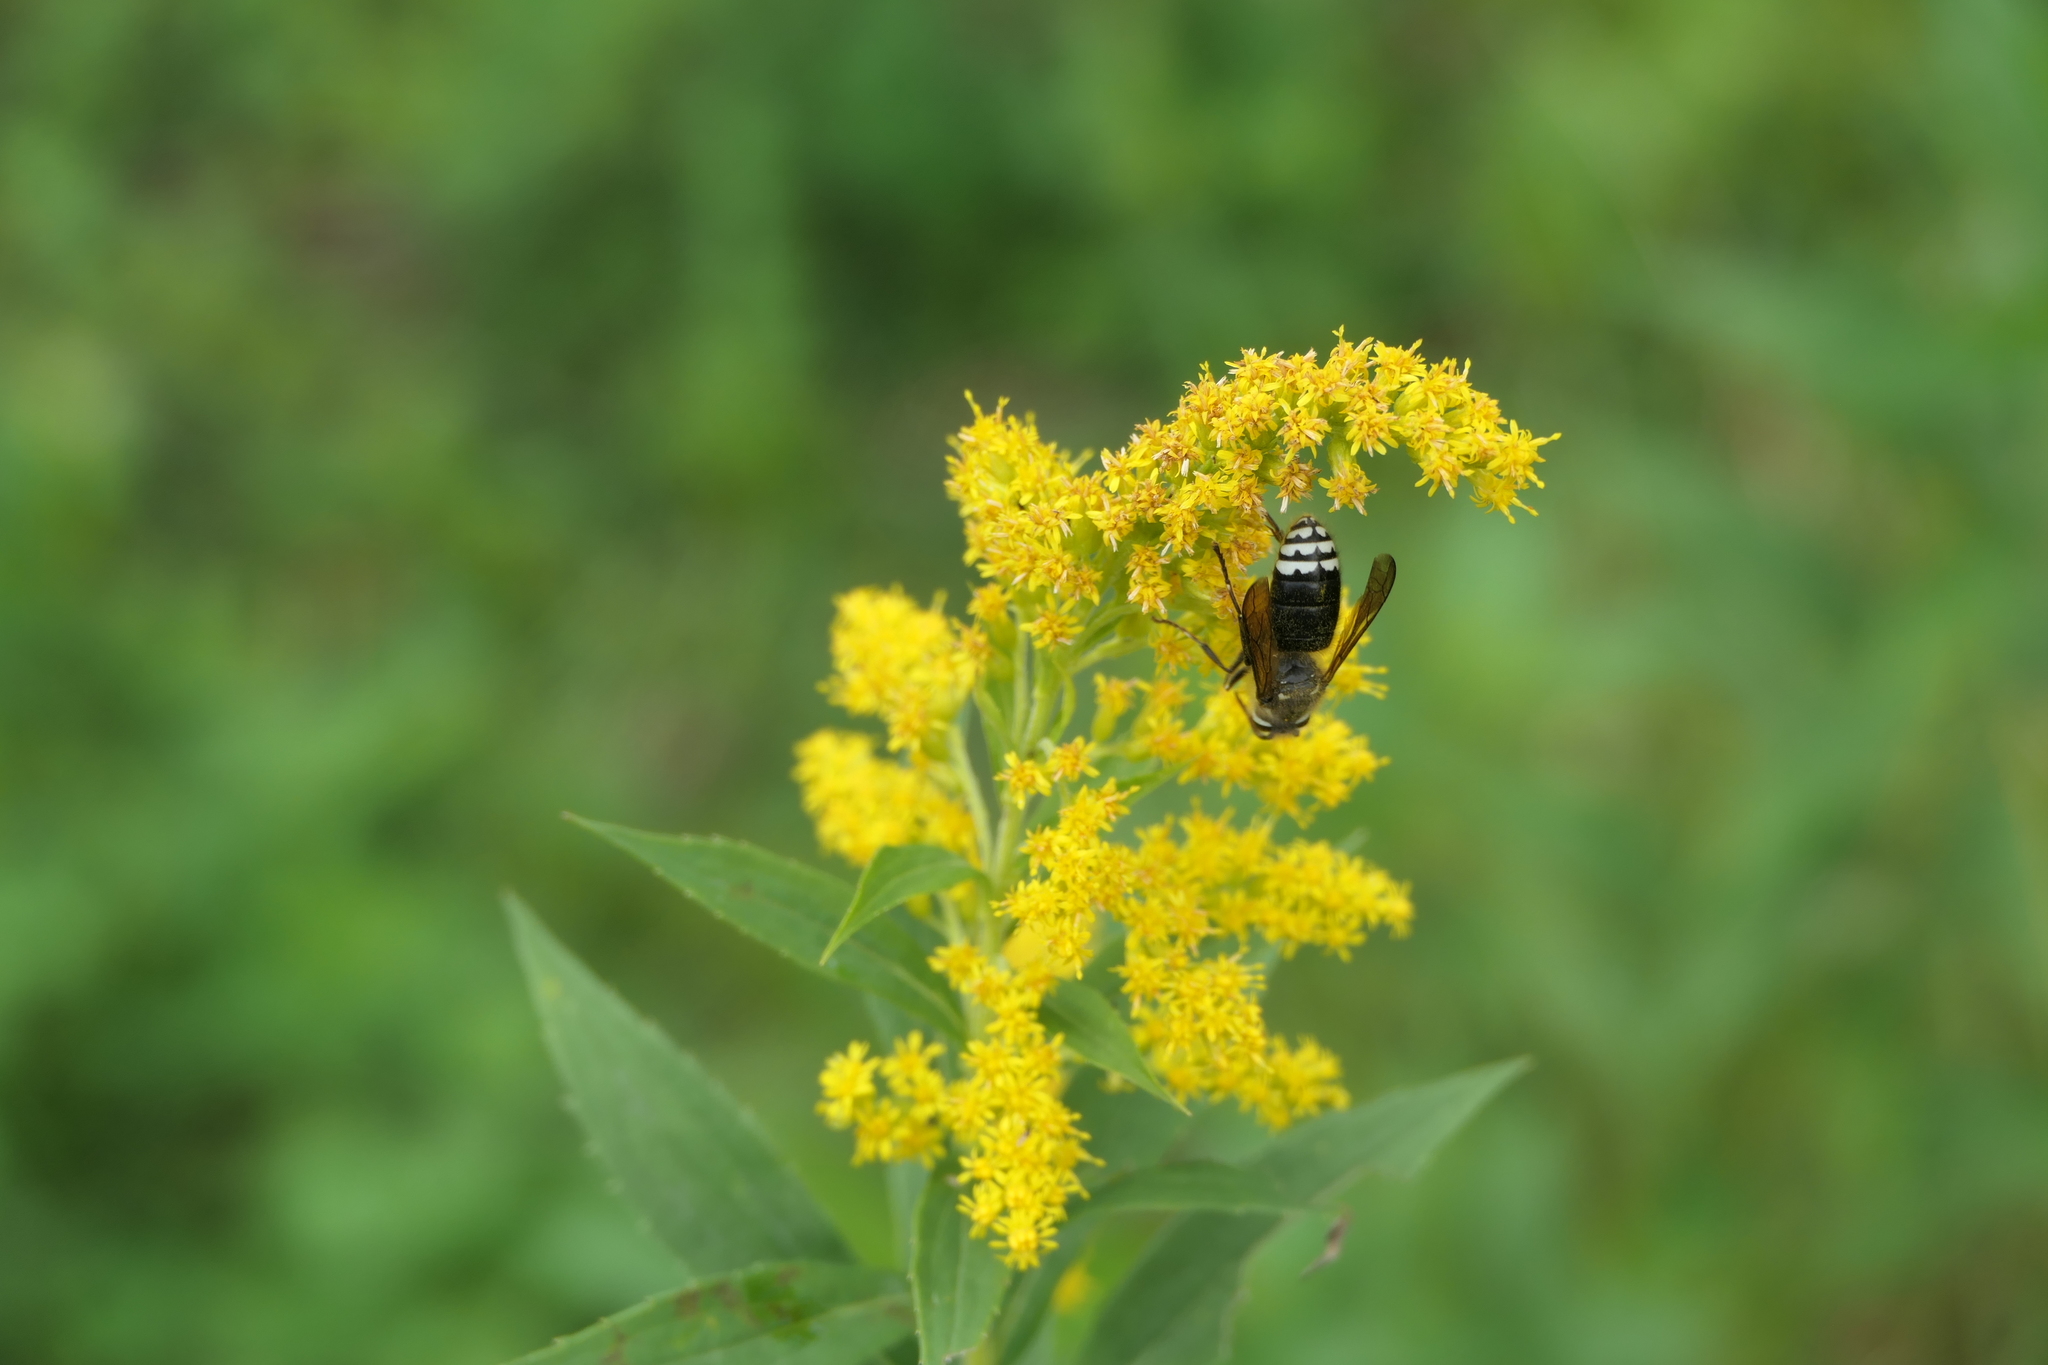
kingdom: Animalia
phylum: Arthropoda
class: Insecta
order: Hymenoptera
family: Vespidae
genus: Dolichovespula
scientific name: Dolichovespula maculata
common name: Bald-faced hornet
